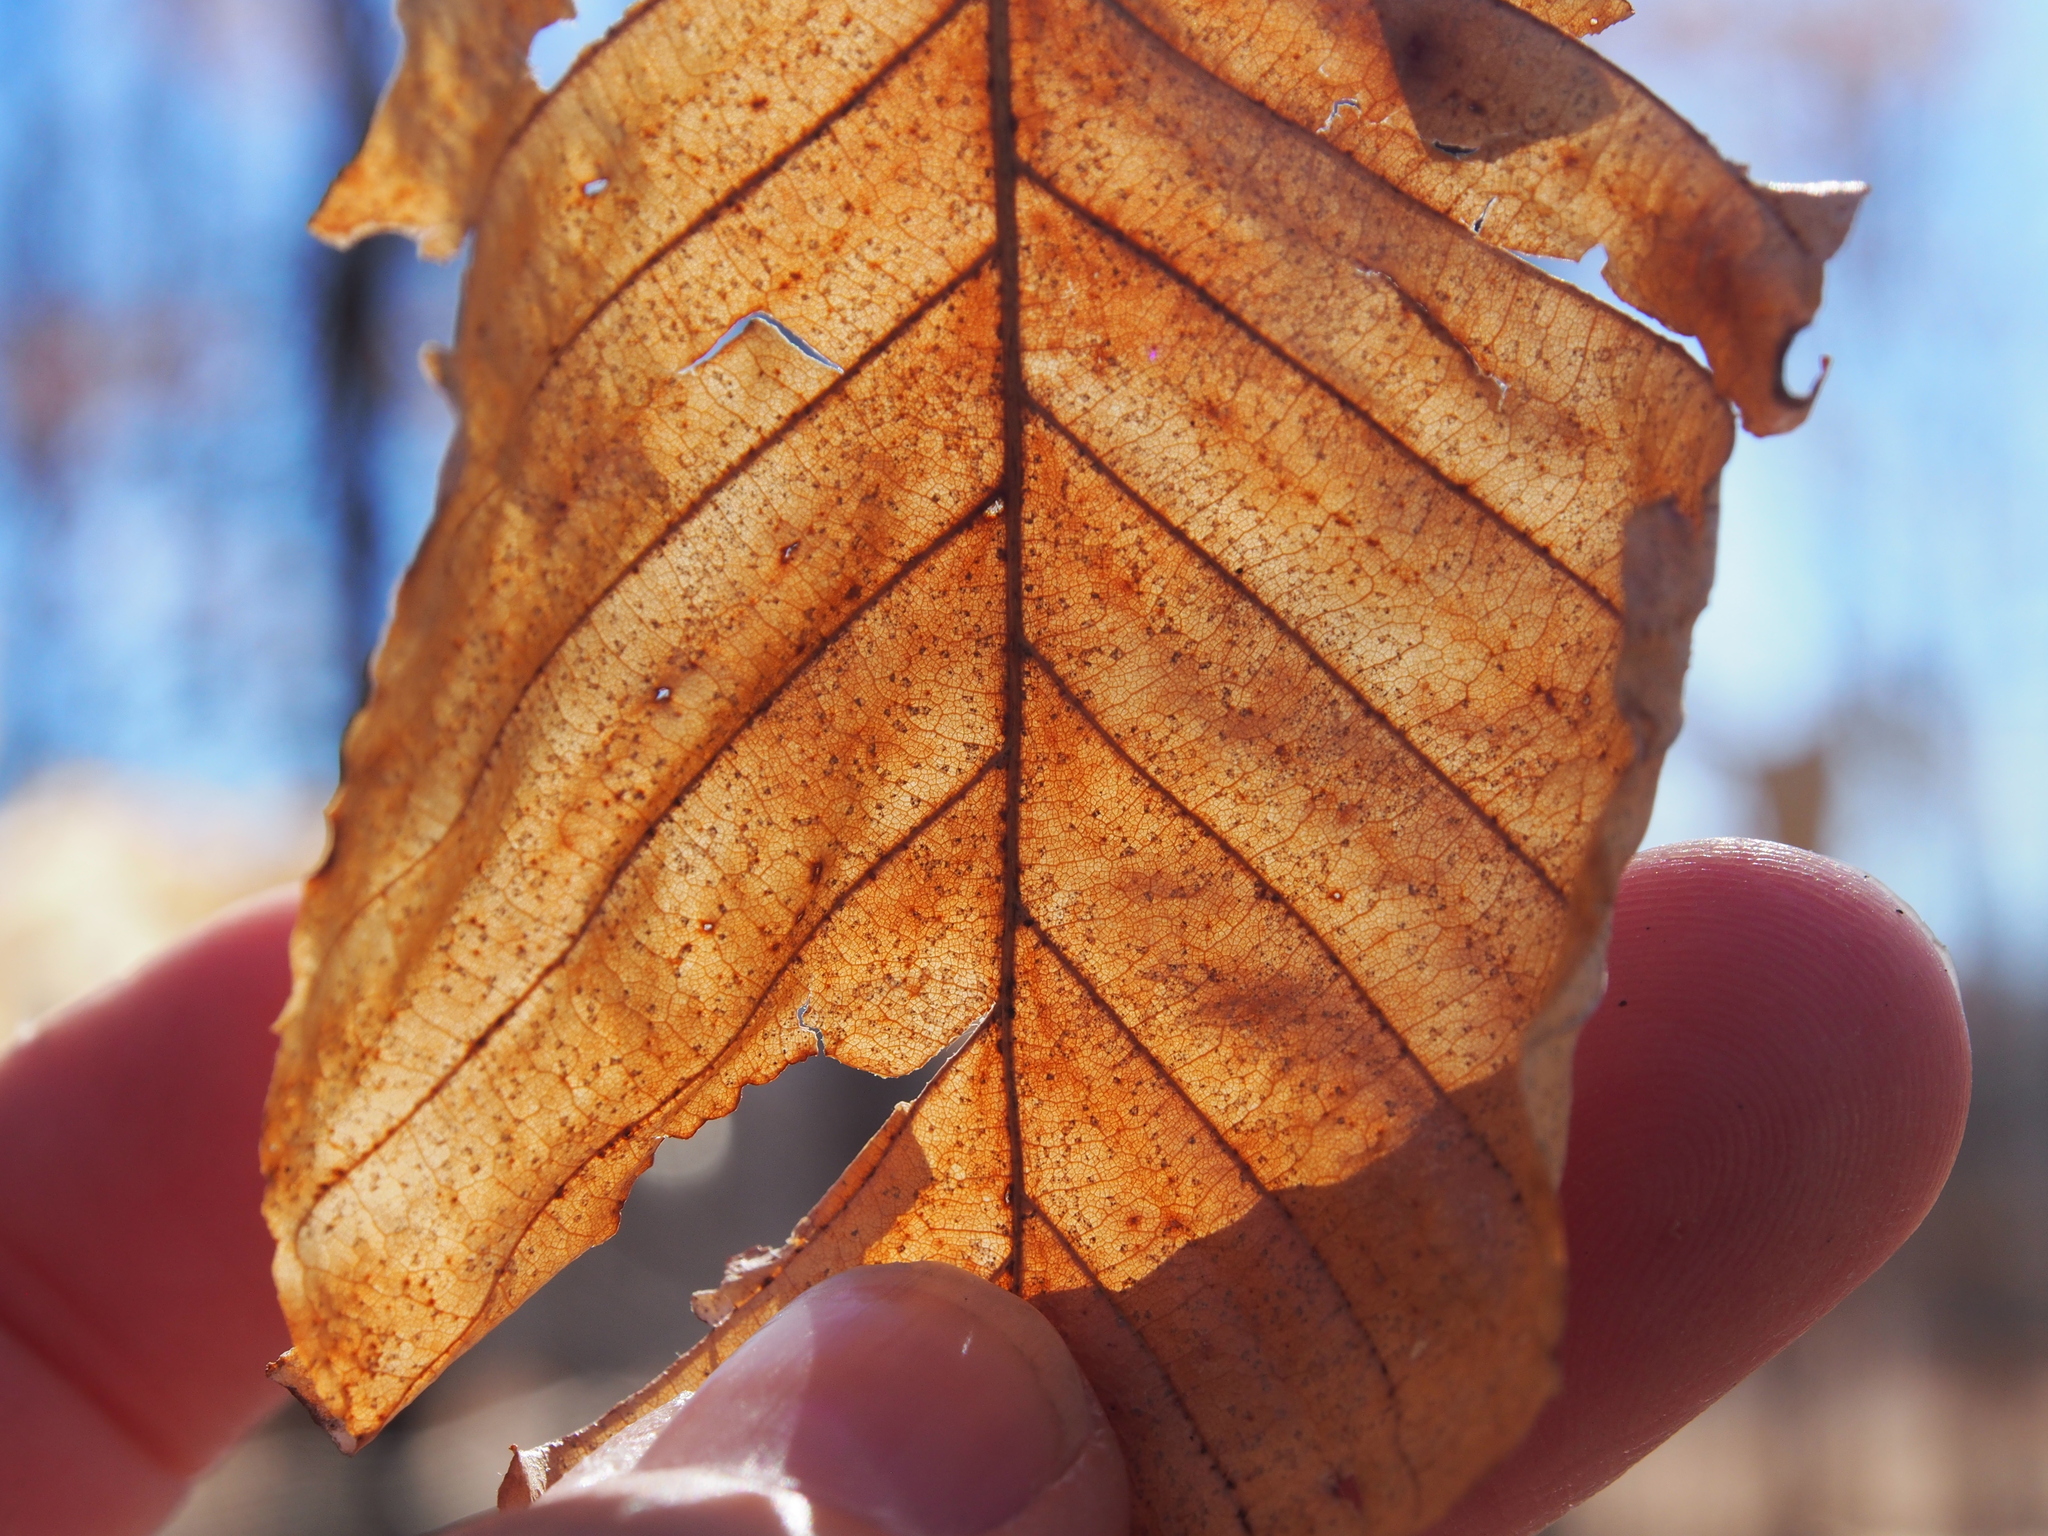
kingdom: Plantae
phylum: Tracheophyta
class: Magnoliopsida
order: Fagales
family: Fagaceae
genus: Fagus
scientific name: Fagus grandifolia
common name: American beech
